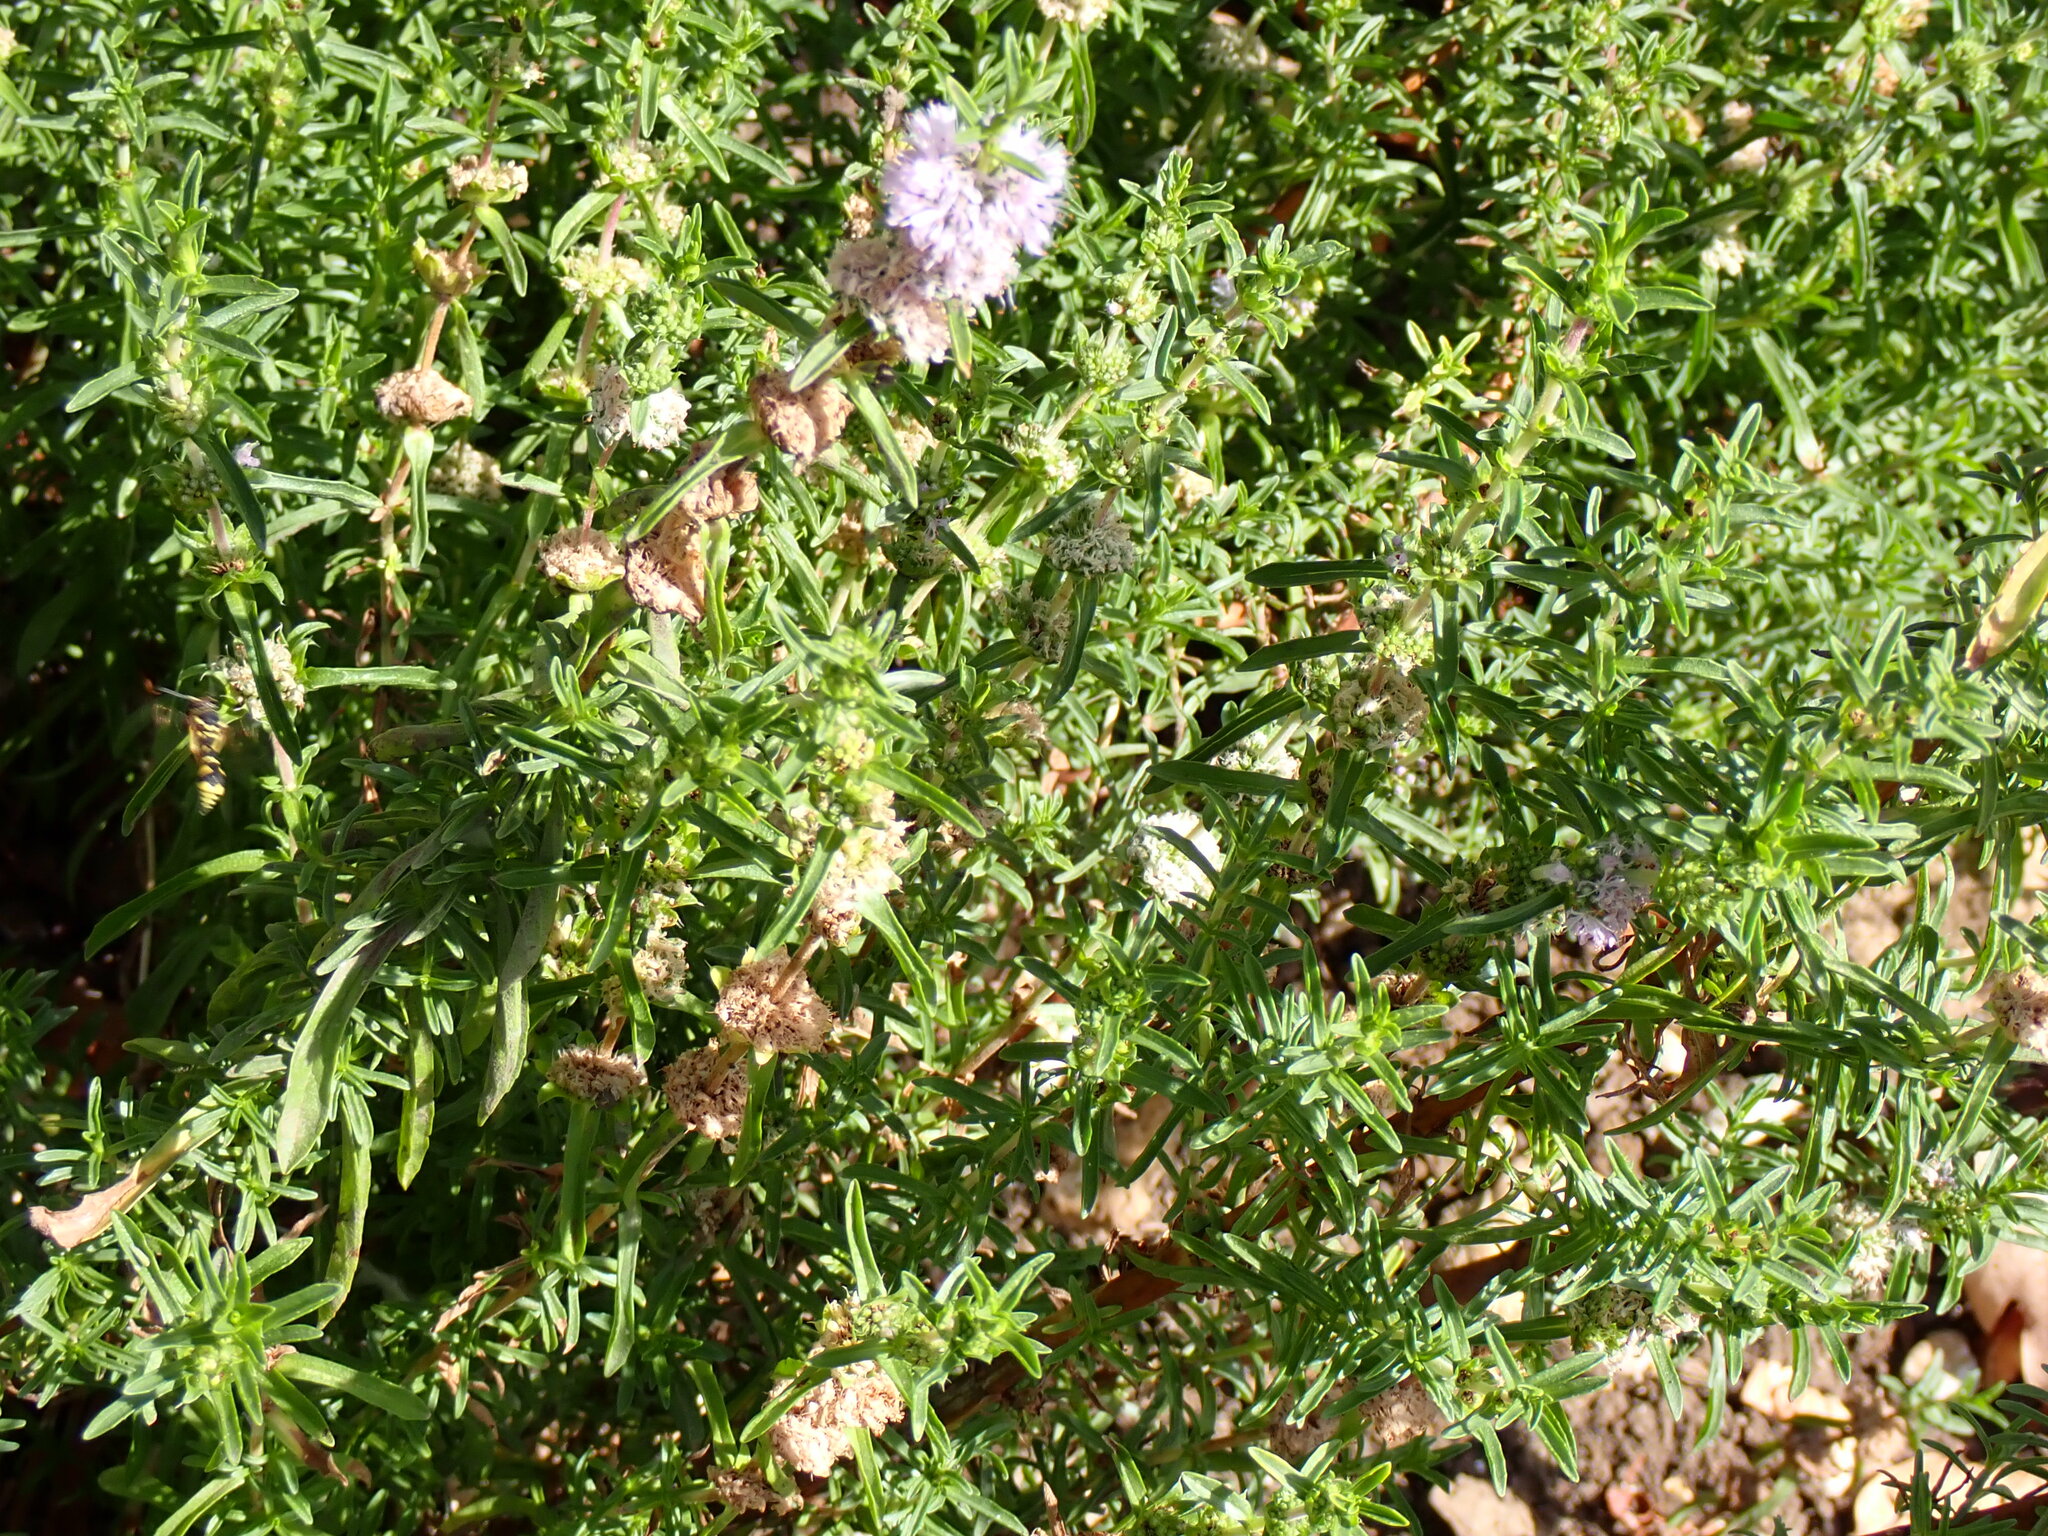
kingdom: Plantae
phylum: Tracheophyta
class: Magnoliopsida
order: Lamiales
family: Lamiaceae
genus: Mentha
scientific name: Mentha cervina
